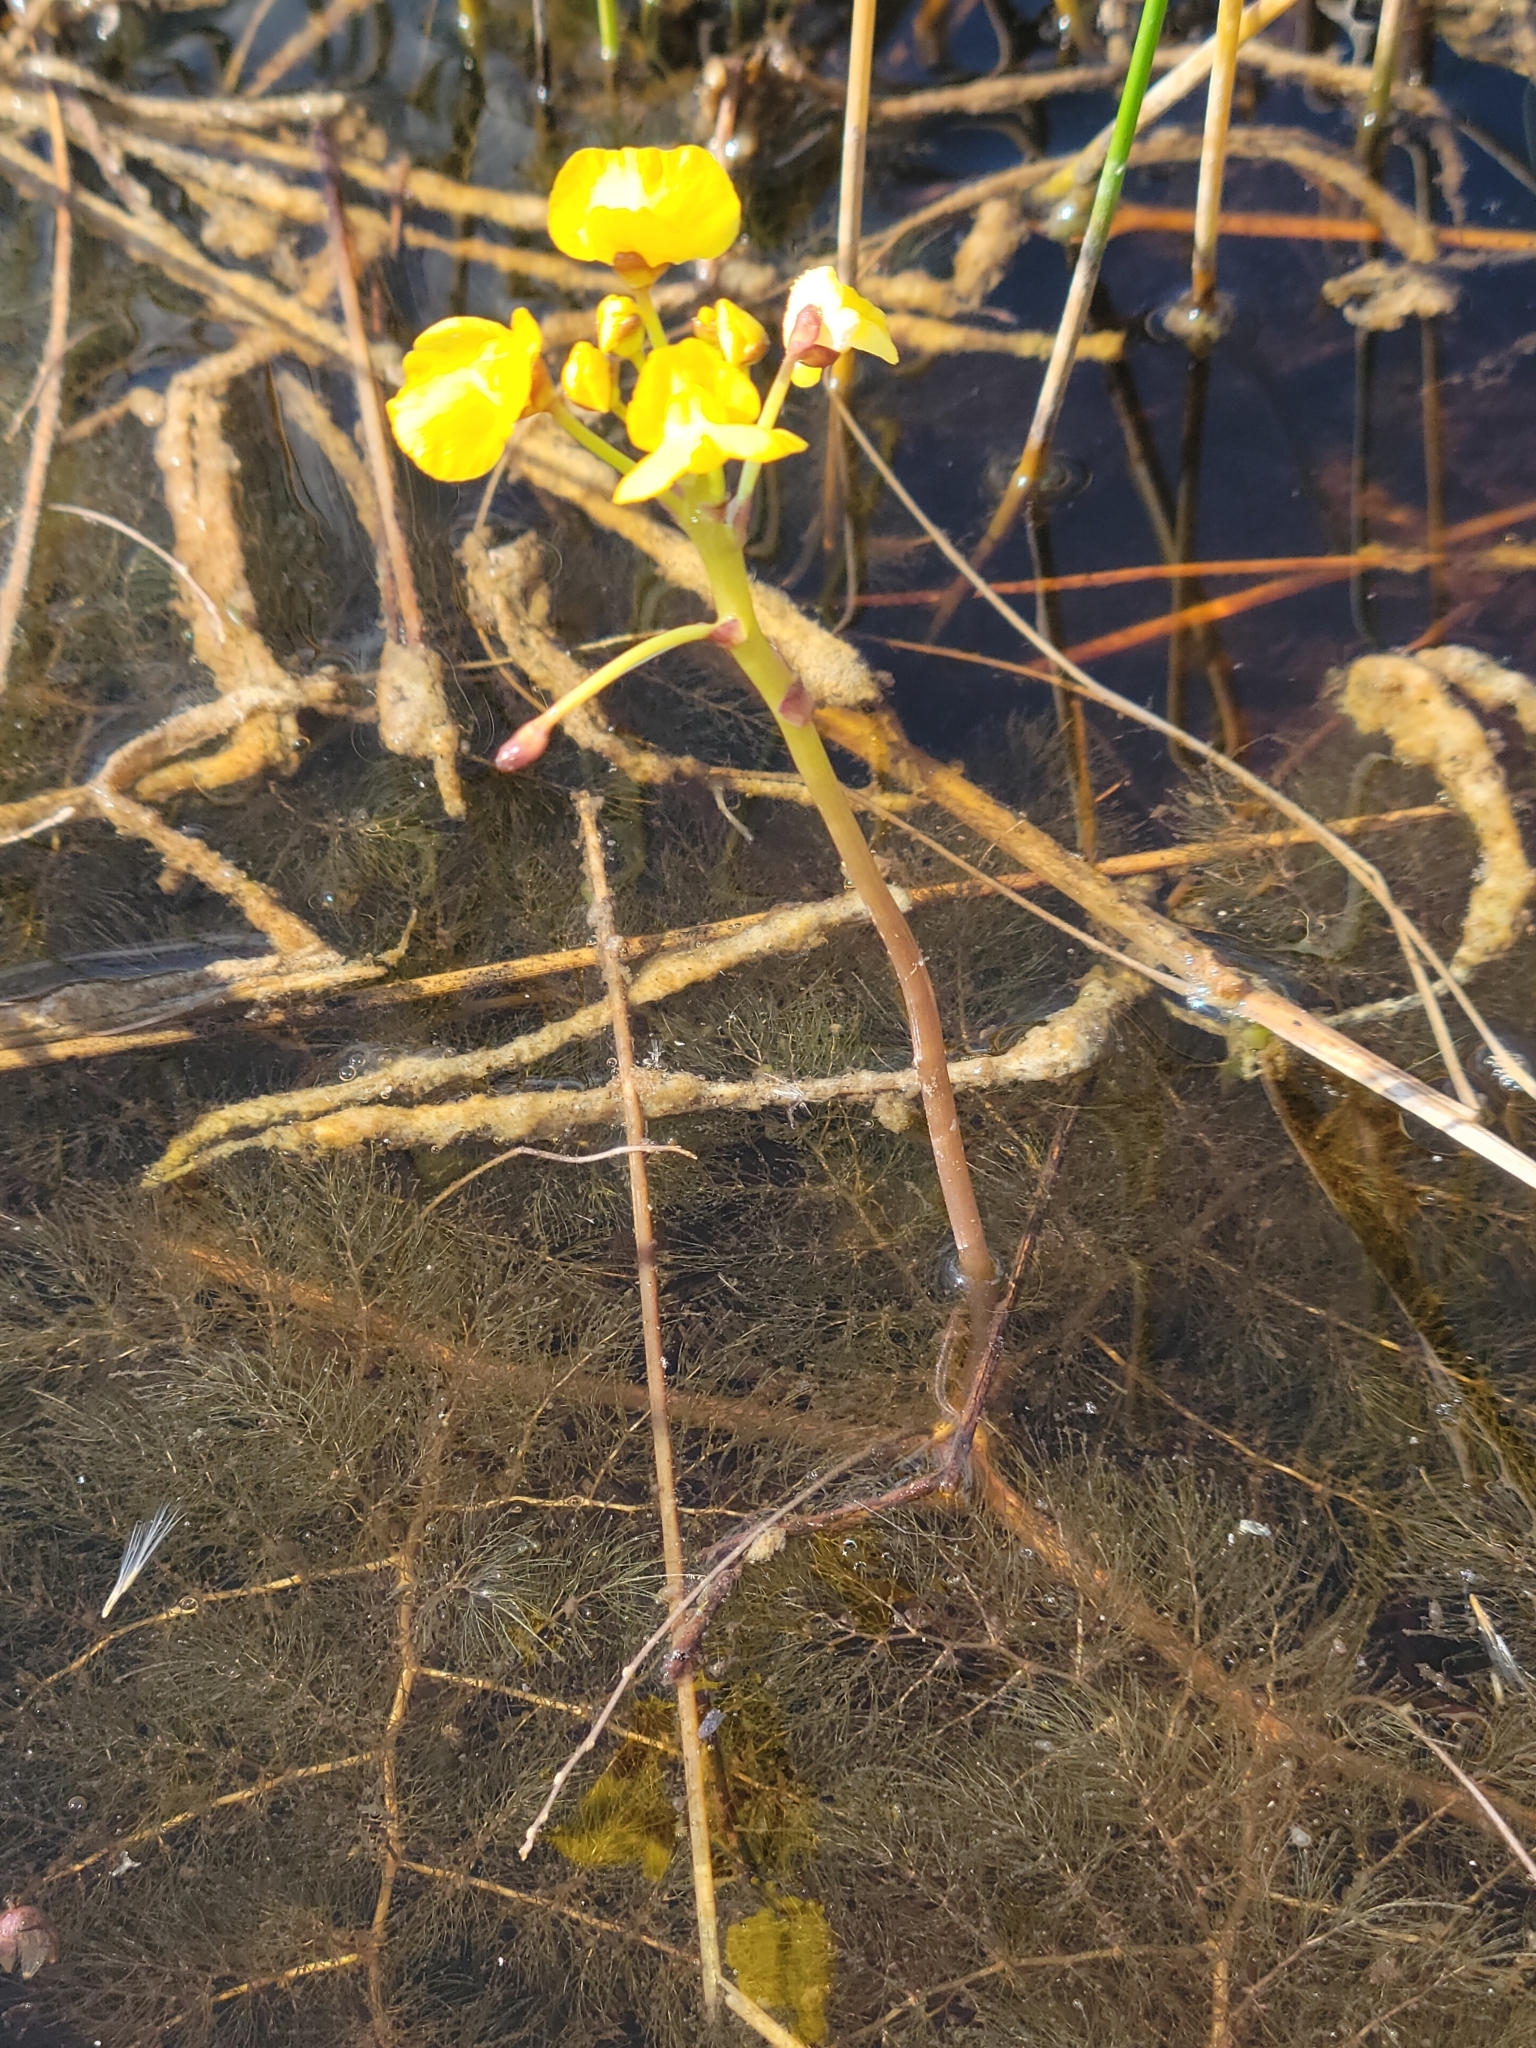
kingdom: Plantae
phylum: Tracheophyta
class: Magnoliopsida
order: Lamiales
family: Lentibulariaceae
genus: Utricularia
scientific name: Utricularia foliosa
